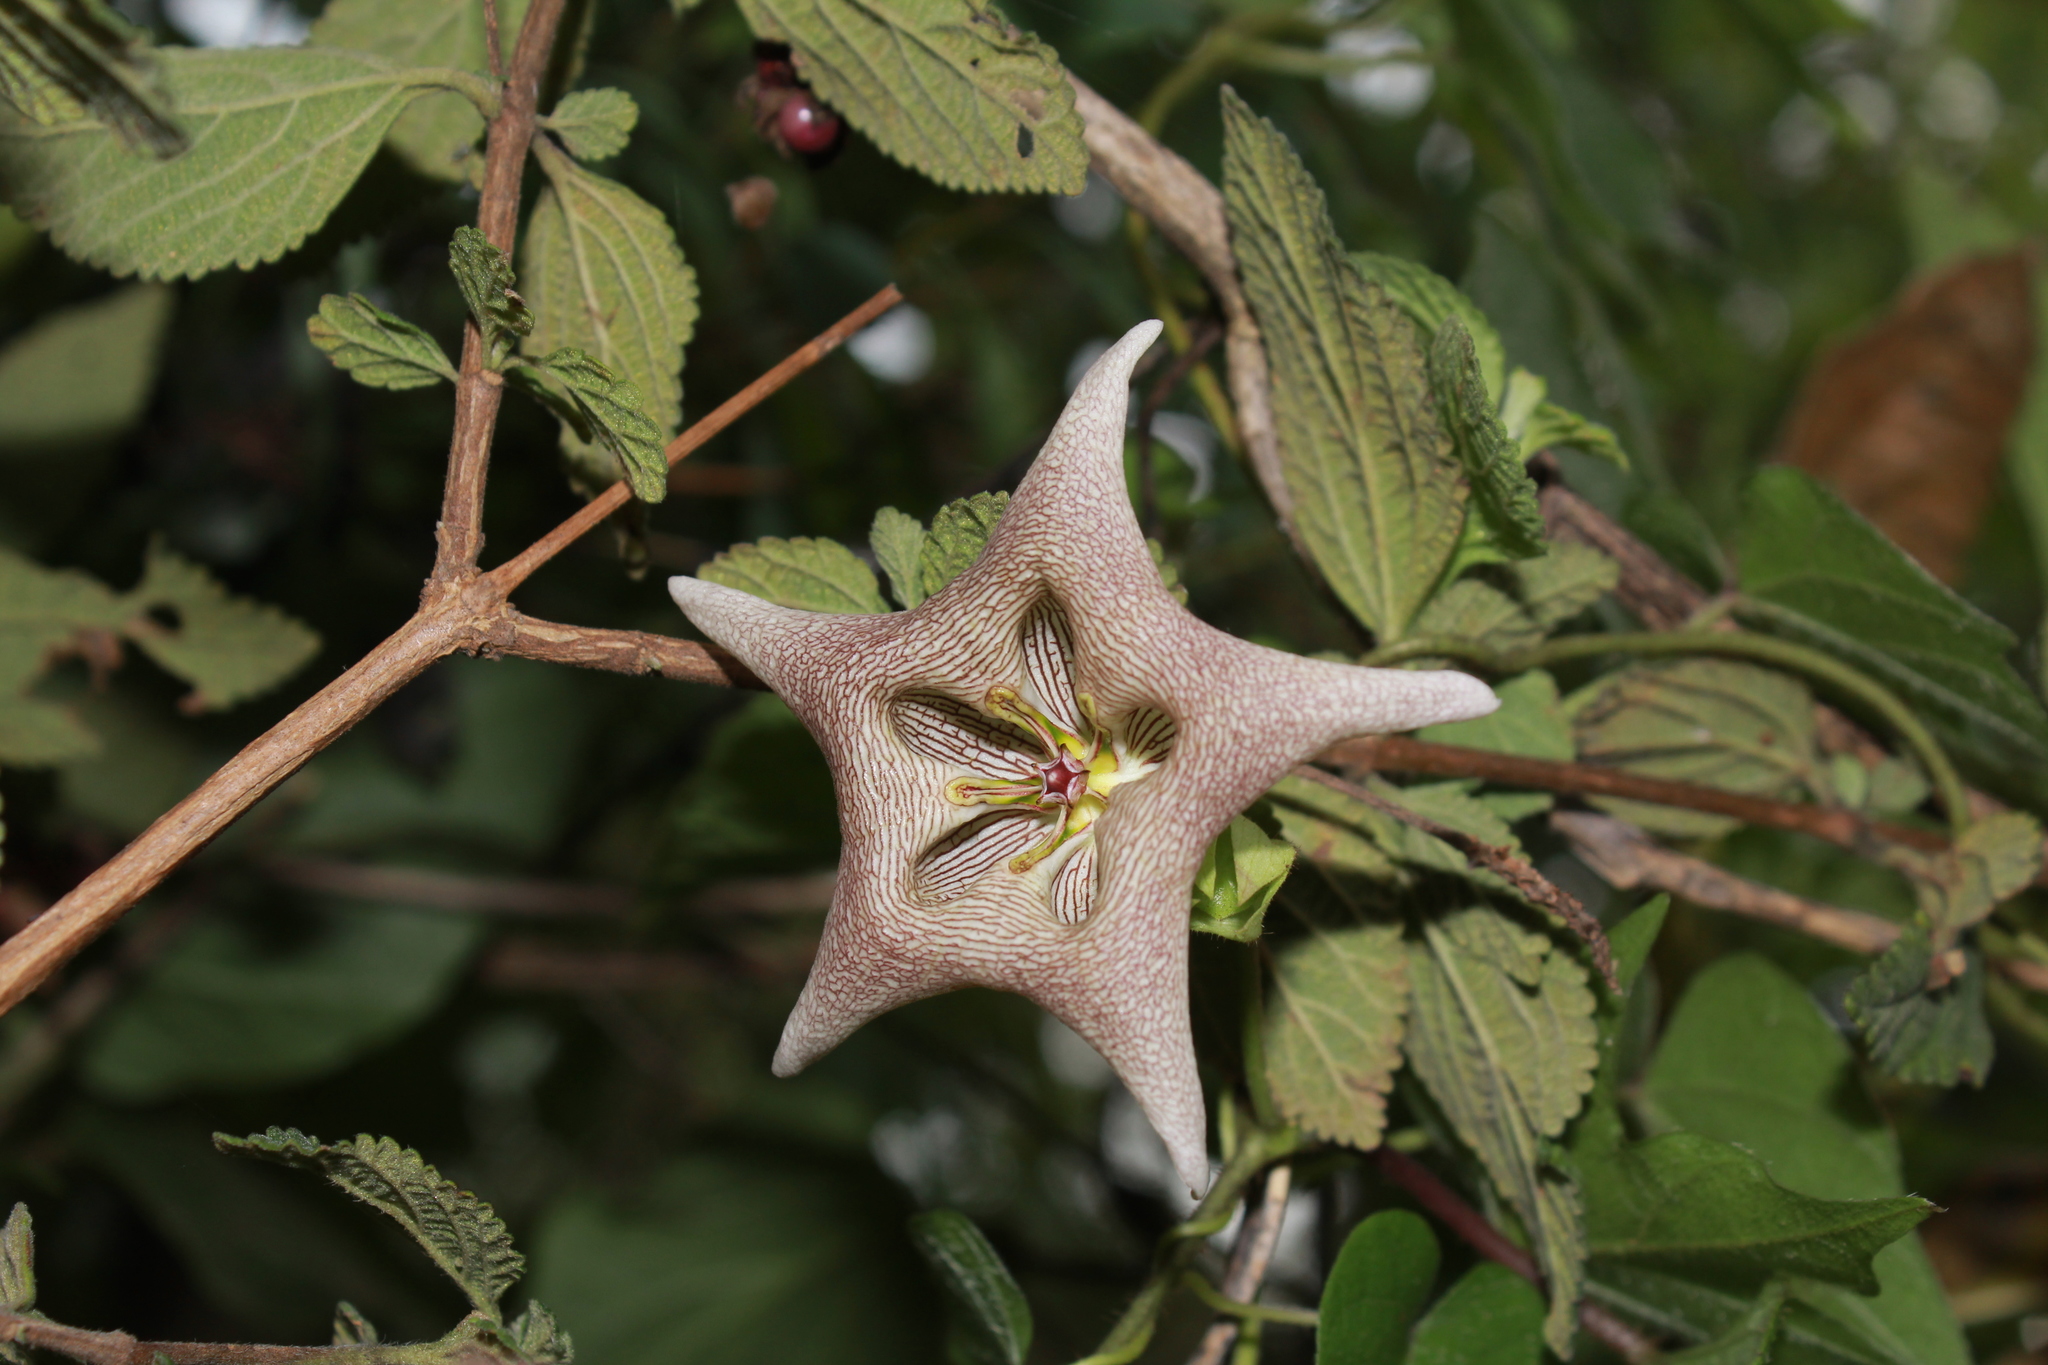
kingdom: Plantae
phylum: Tracheophyta
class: Magnoliopsida
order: Gentianales
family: Apocynaceae
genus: Dictyanthus
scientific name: Dictyanthus pavonii
